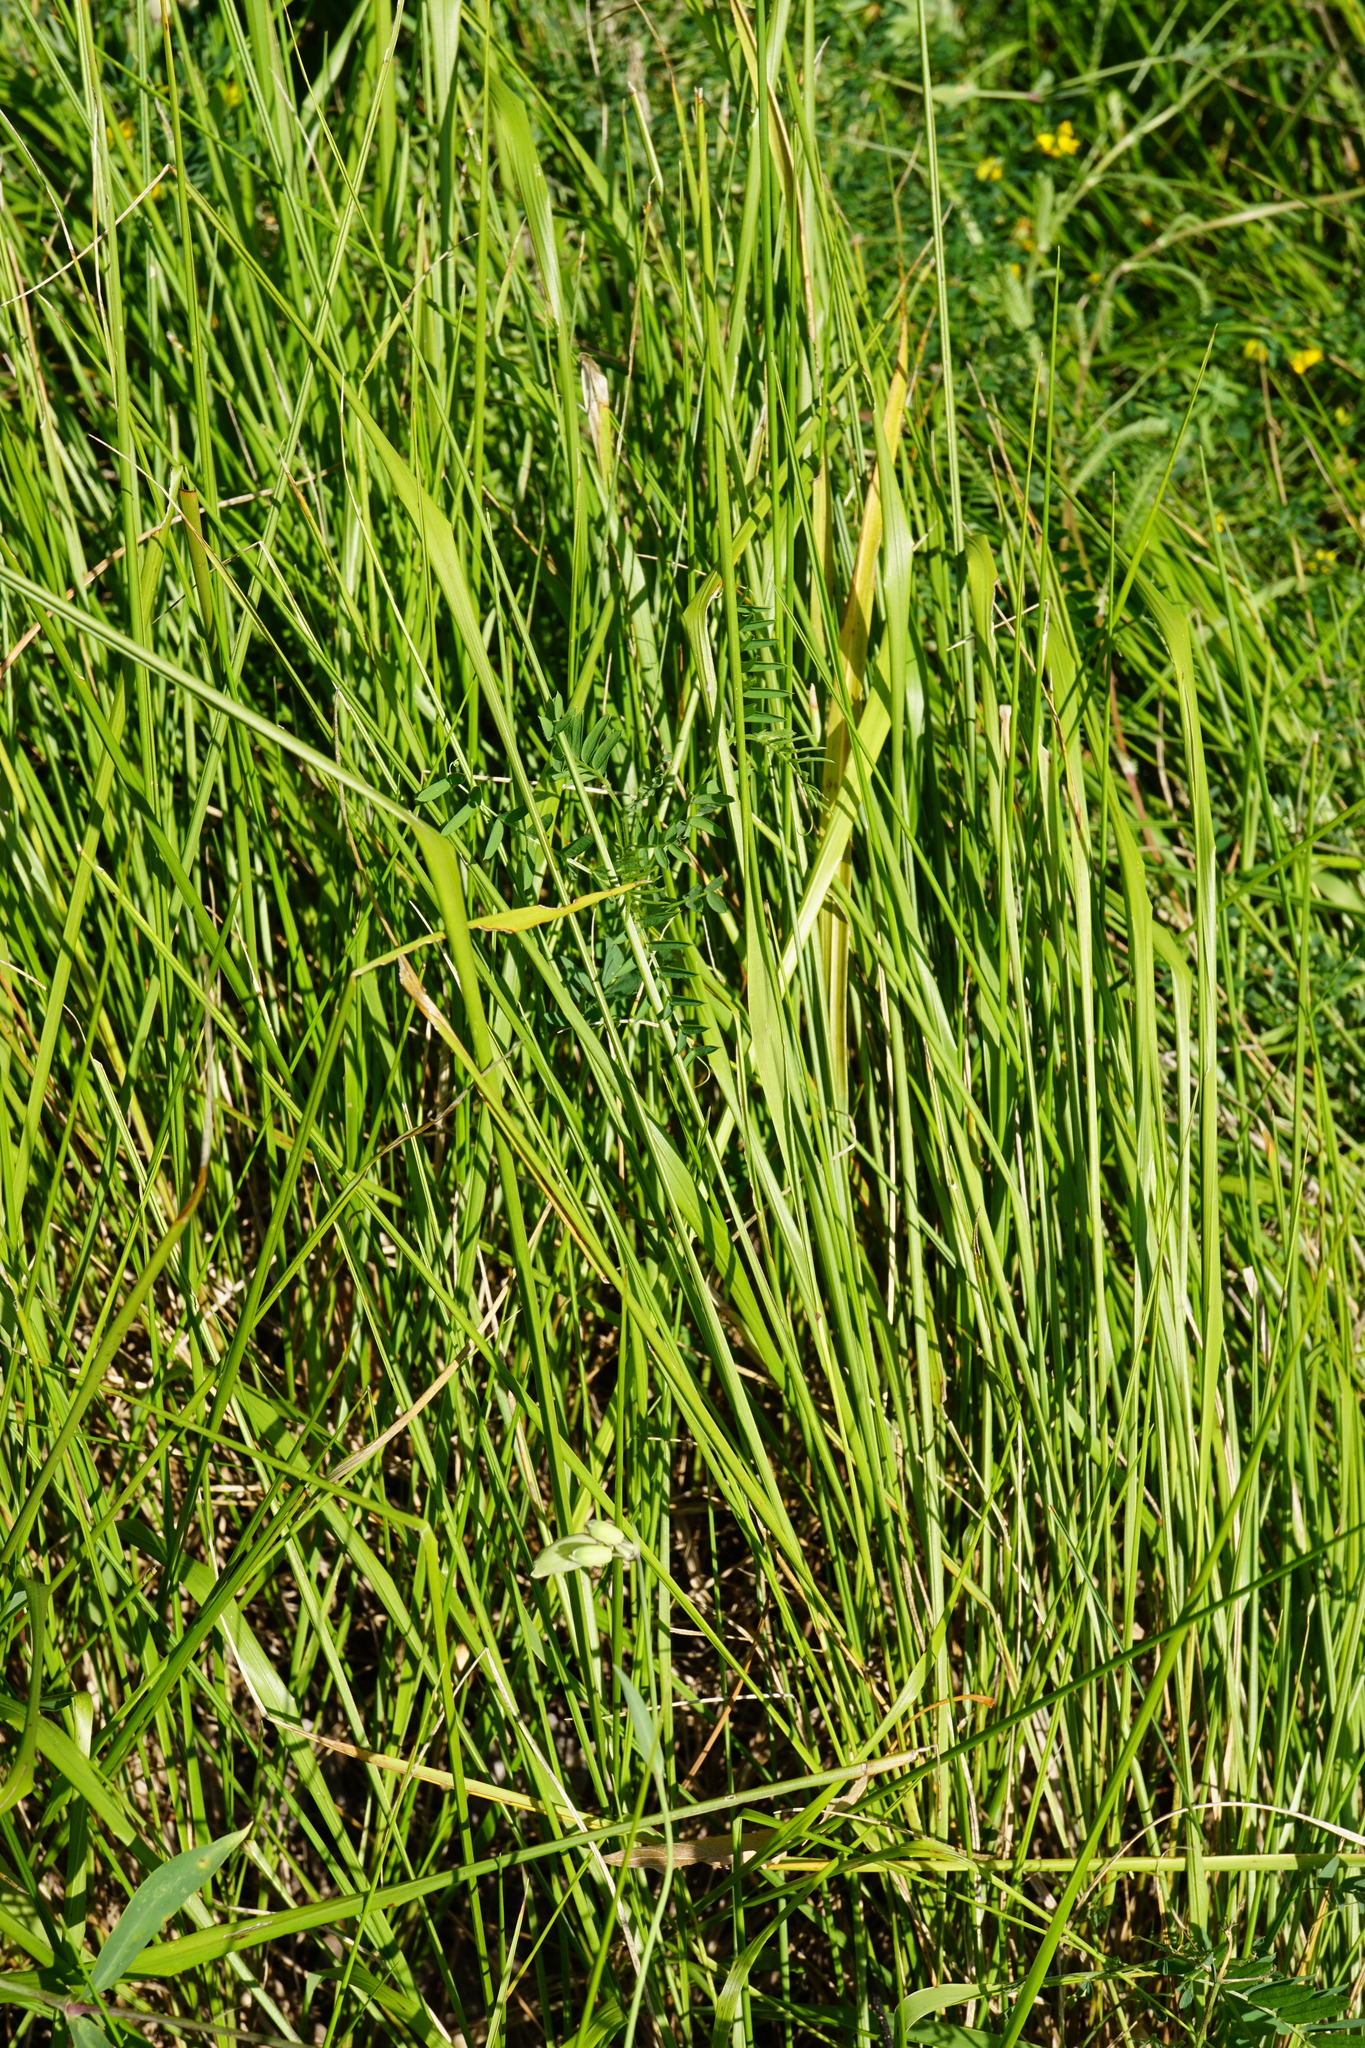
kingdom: Plantae
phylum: Tracheophyta
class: Liliopsida
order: Poales
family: Poaceae
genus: Brachypodium
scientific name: Brachypodium pinnatum
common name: Tor grass
